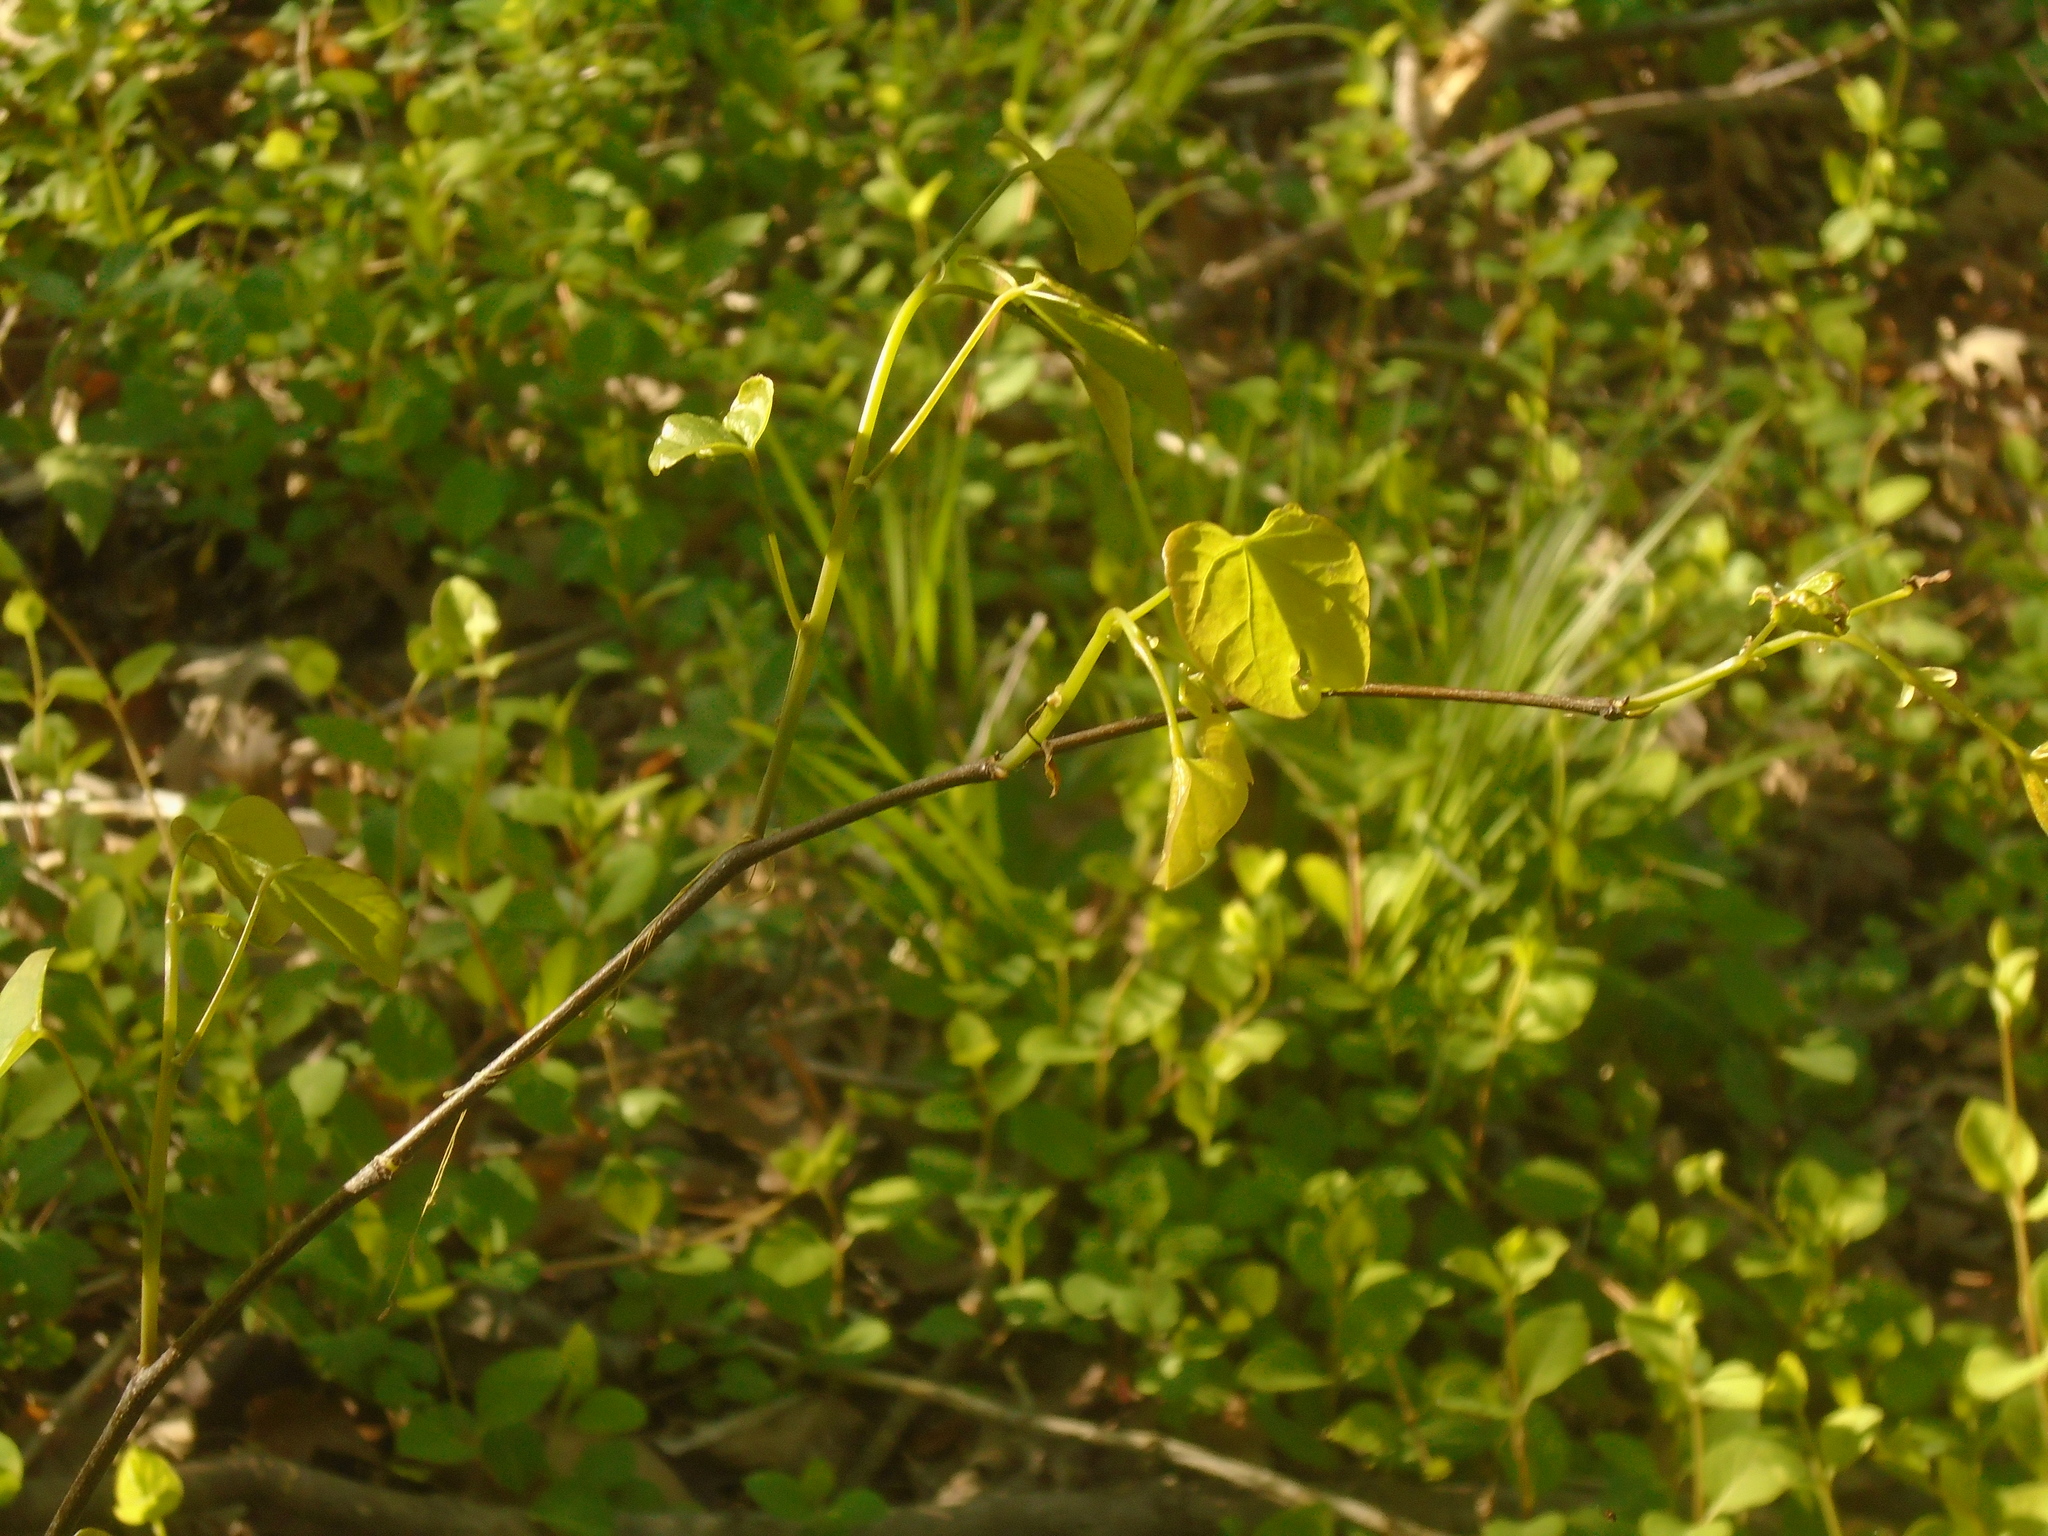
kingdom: Plantae
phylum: Tracheophyta
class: Magnoliopsida
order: Fabales
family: Fabaceae
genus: Cercis
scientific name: Cercis canadensis
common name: Eastern redbud
